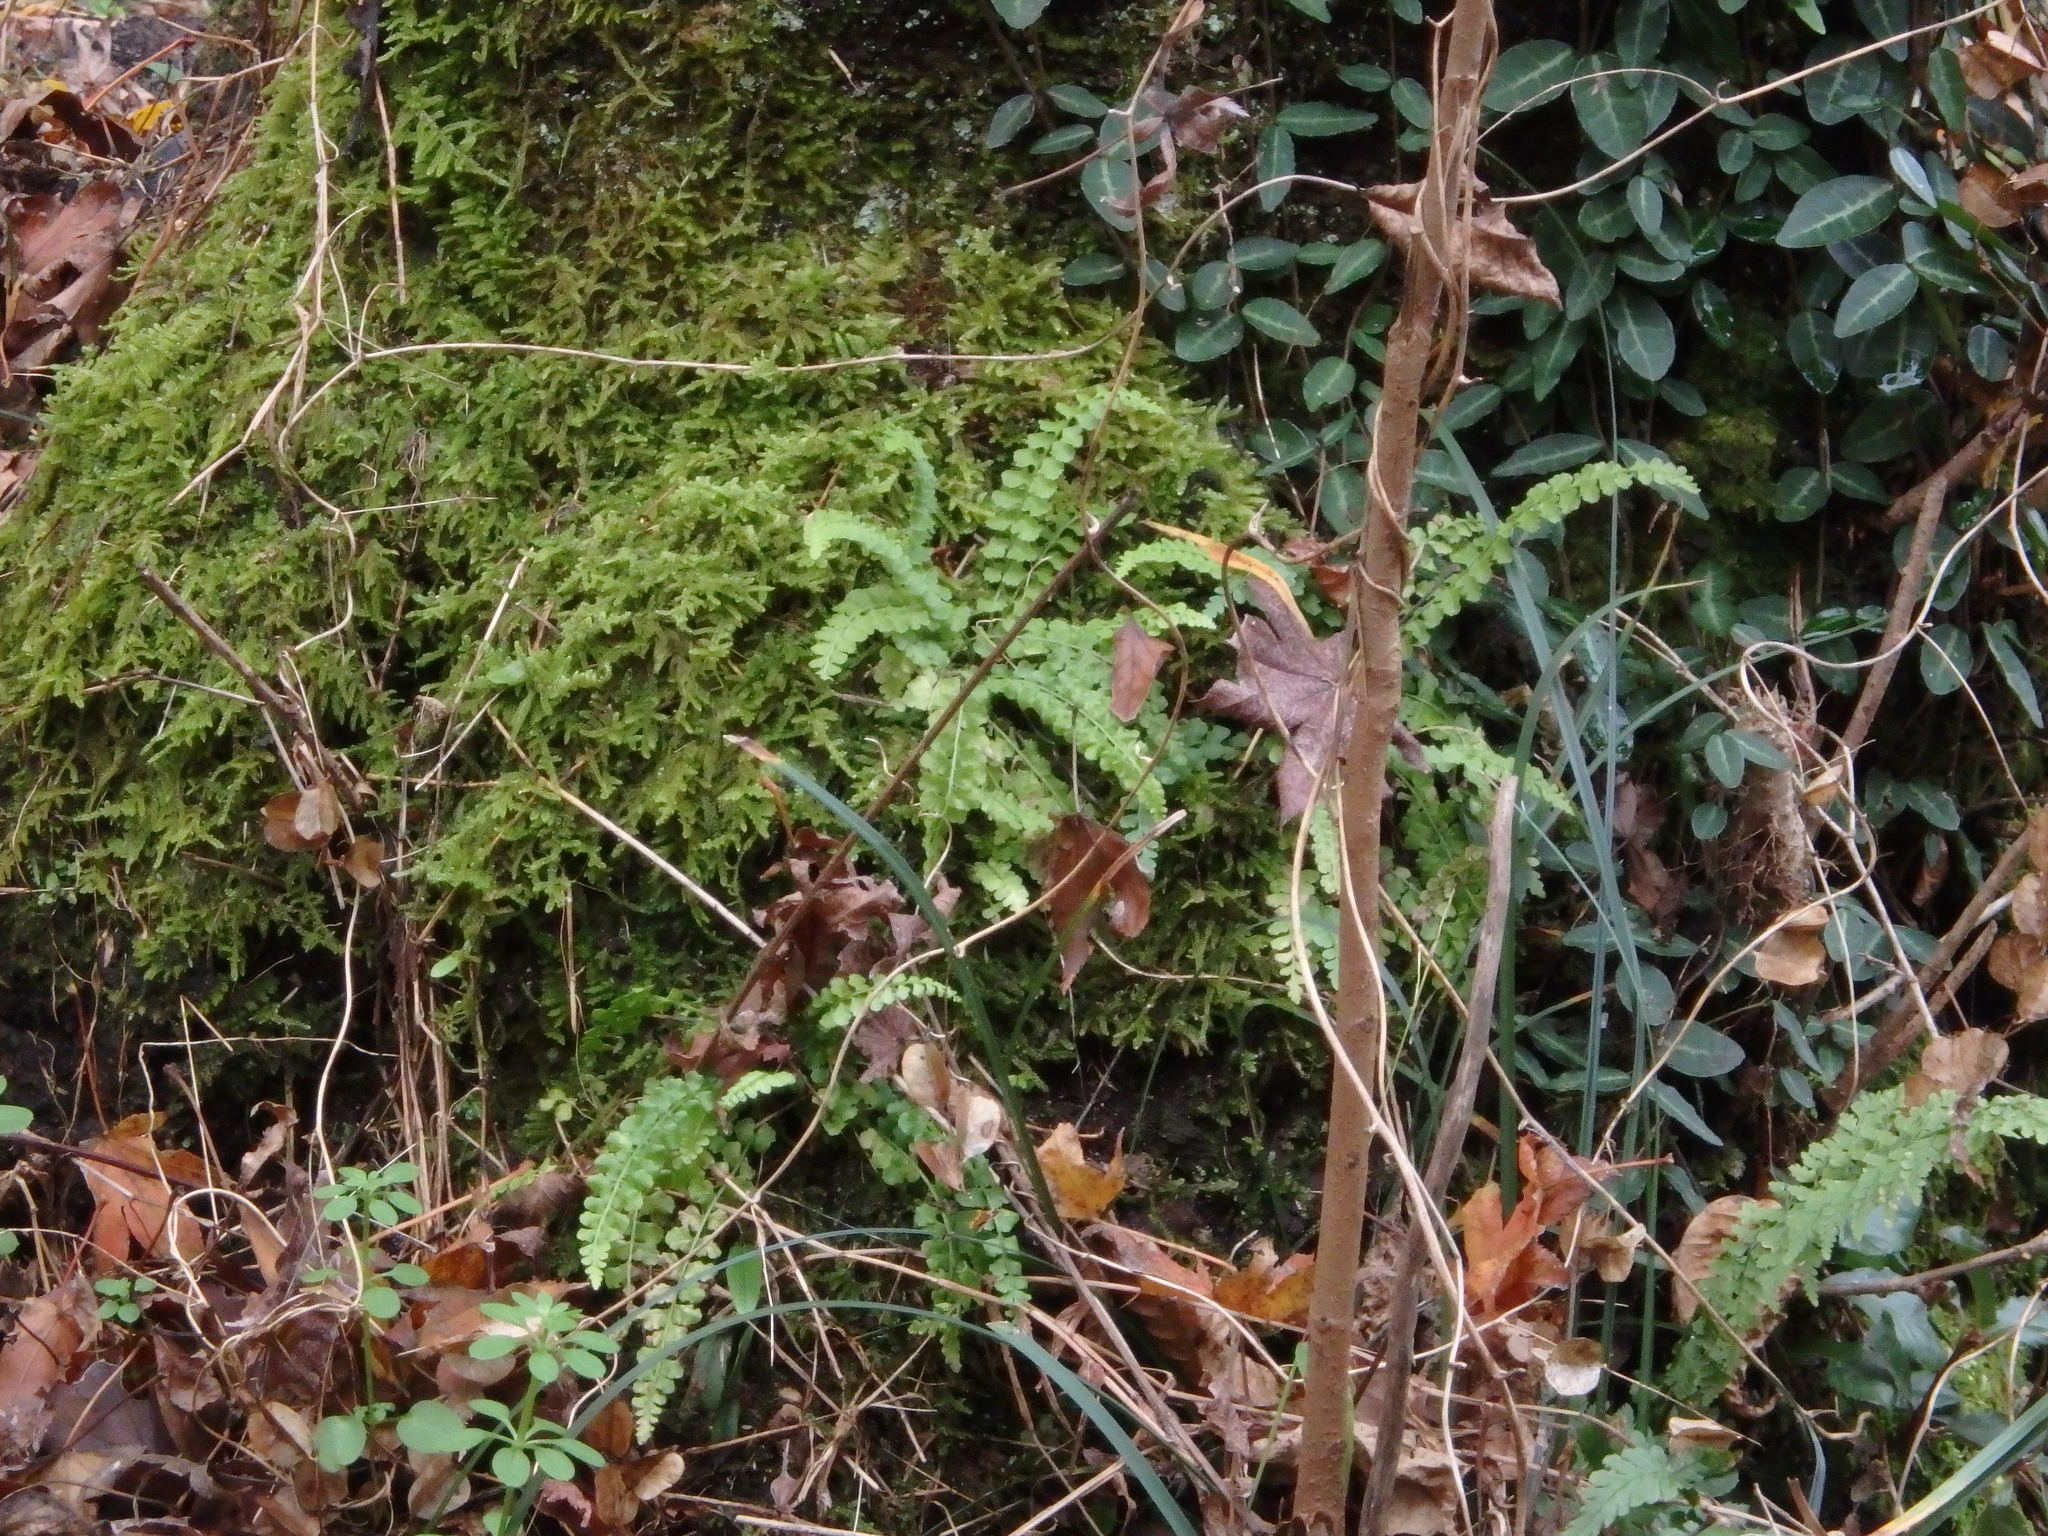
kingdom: Plantae
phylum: Tracheophyta
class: Polypodiopsida
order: Polypodiales
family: Aspleniaceae
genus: Asplenium
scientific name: Asplenium incisum
